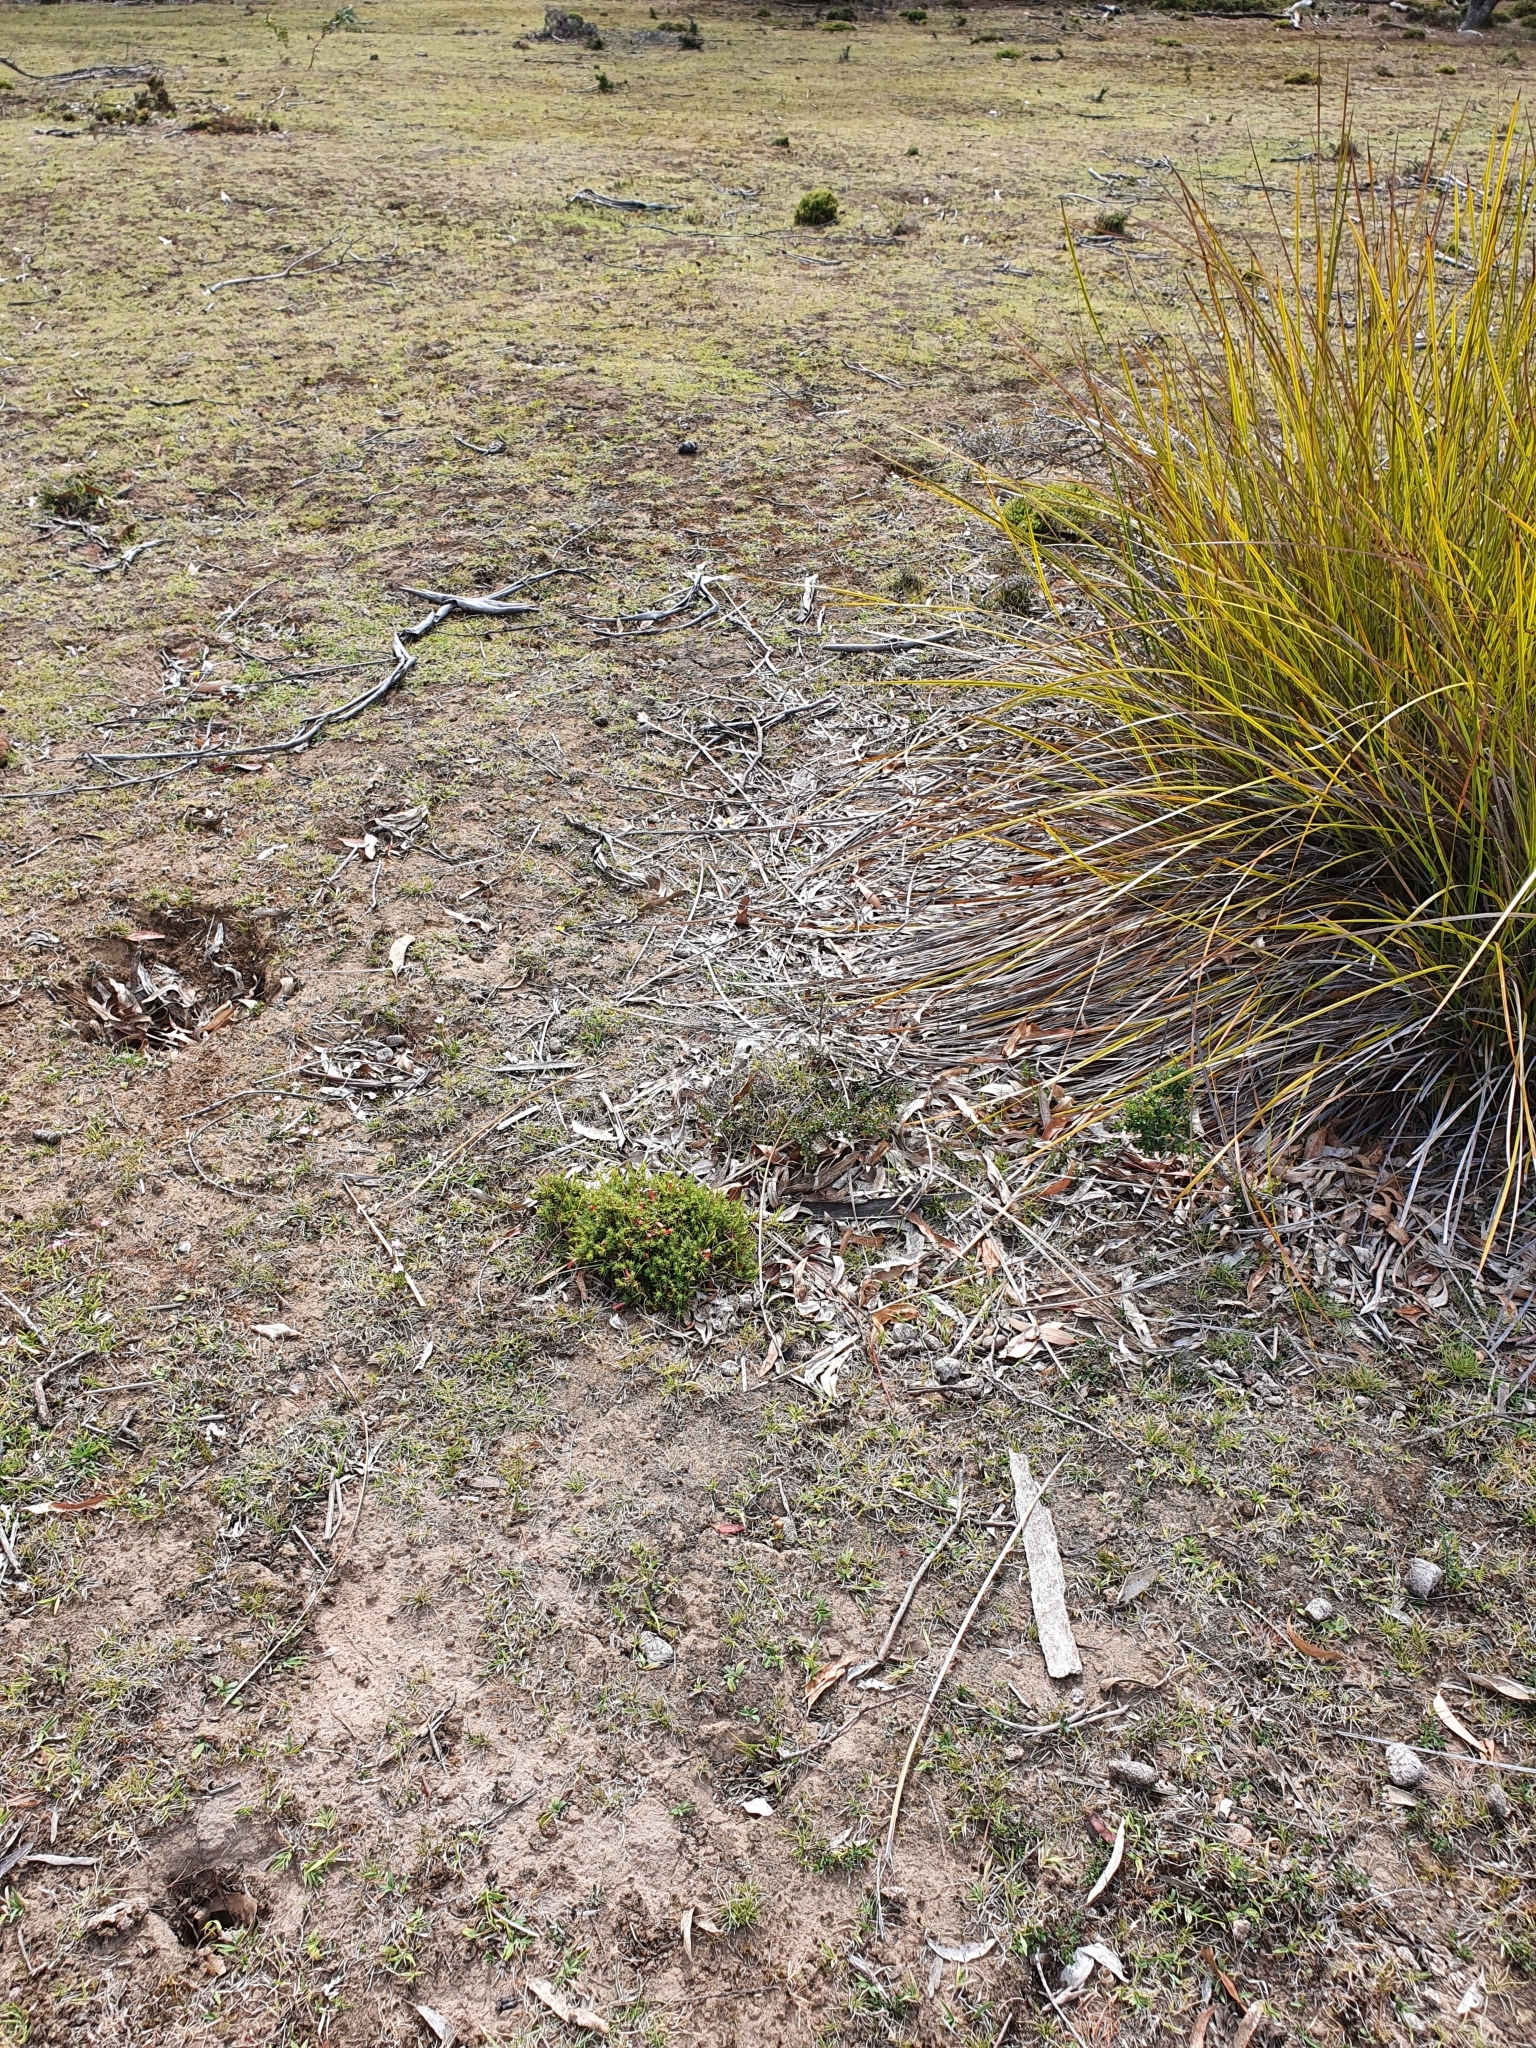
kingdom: Plantae
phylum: Tracheophyta
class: Magnoliopsida
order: Ericales
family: Ericaceae
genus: Styphelia
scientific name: Styphelia humifusa
